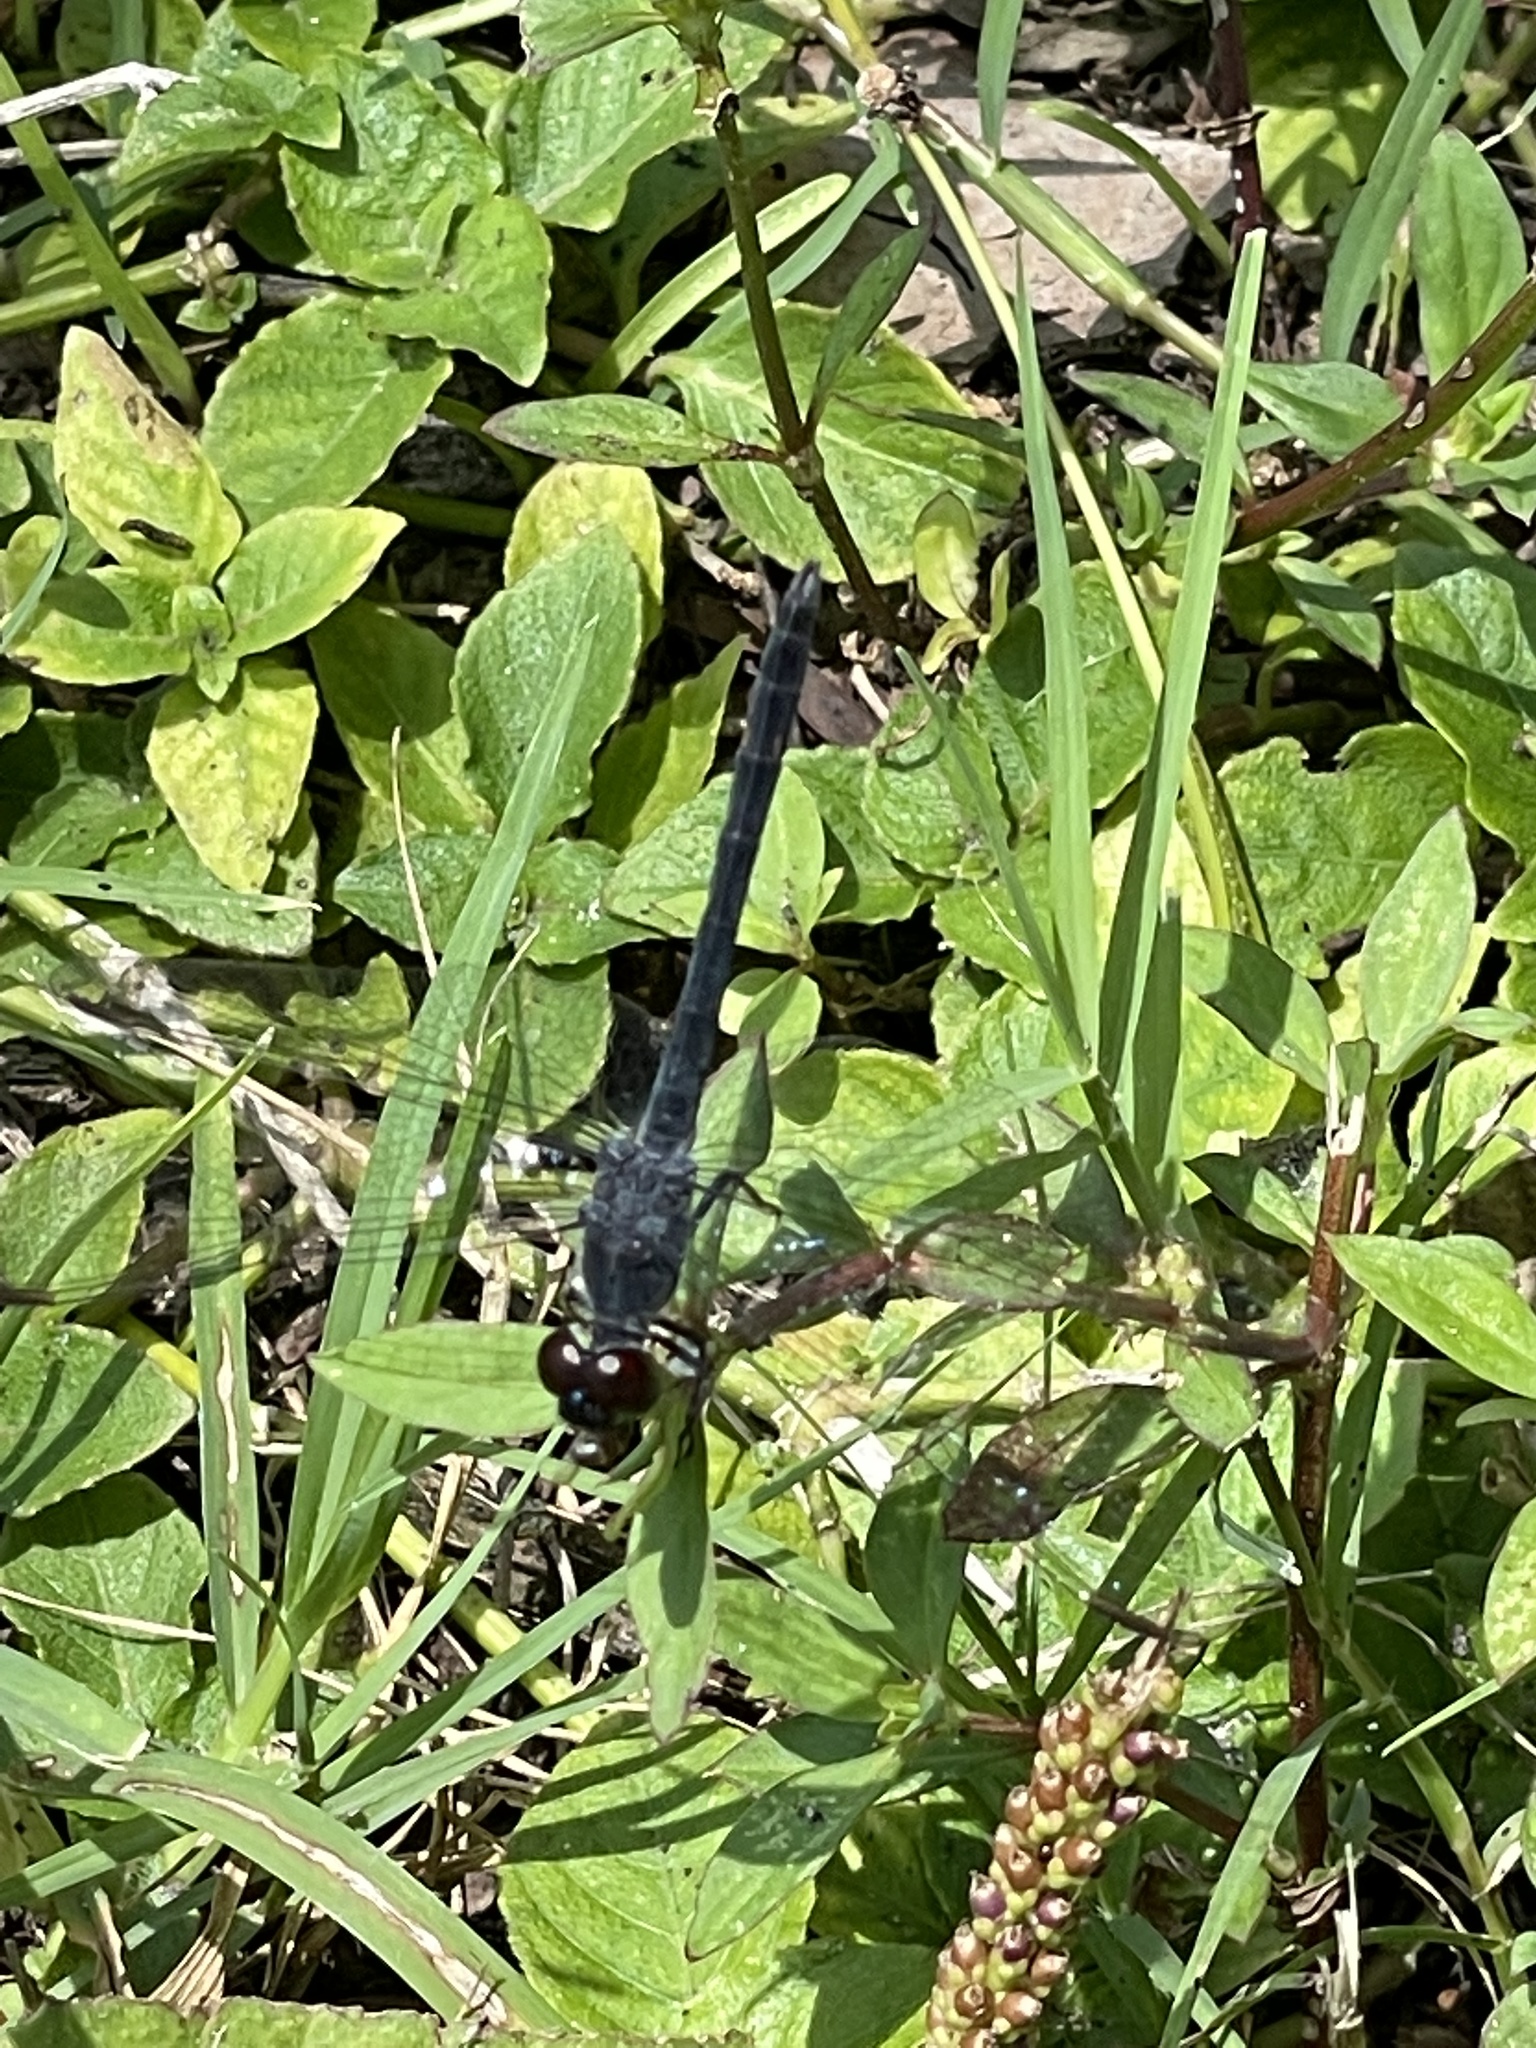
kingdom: Animalia
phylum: Arthropoda
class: Insecta
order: Odonata
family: Libellulidae
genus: Erythrodiplax
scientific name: Erythrodiplax berenice
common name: Seaside dragonlet
